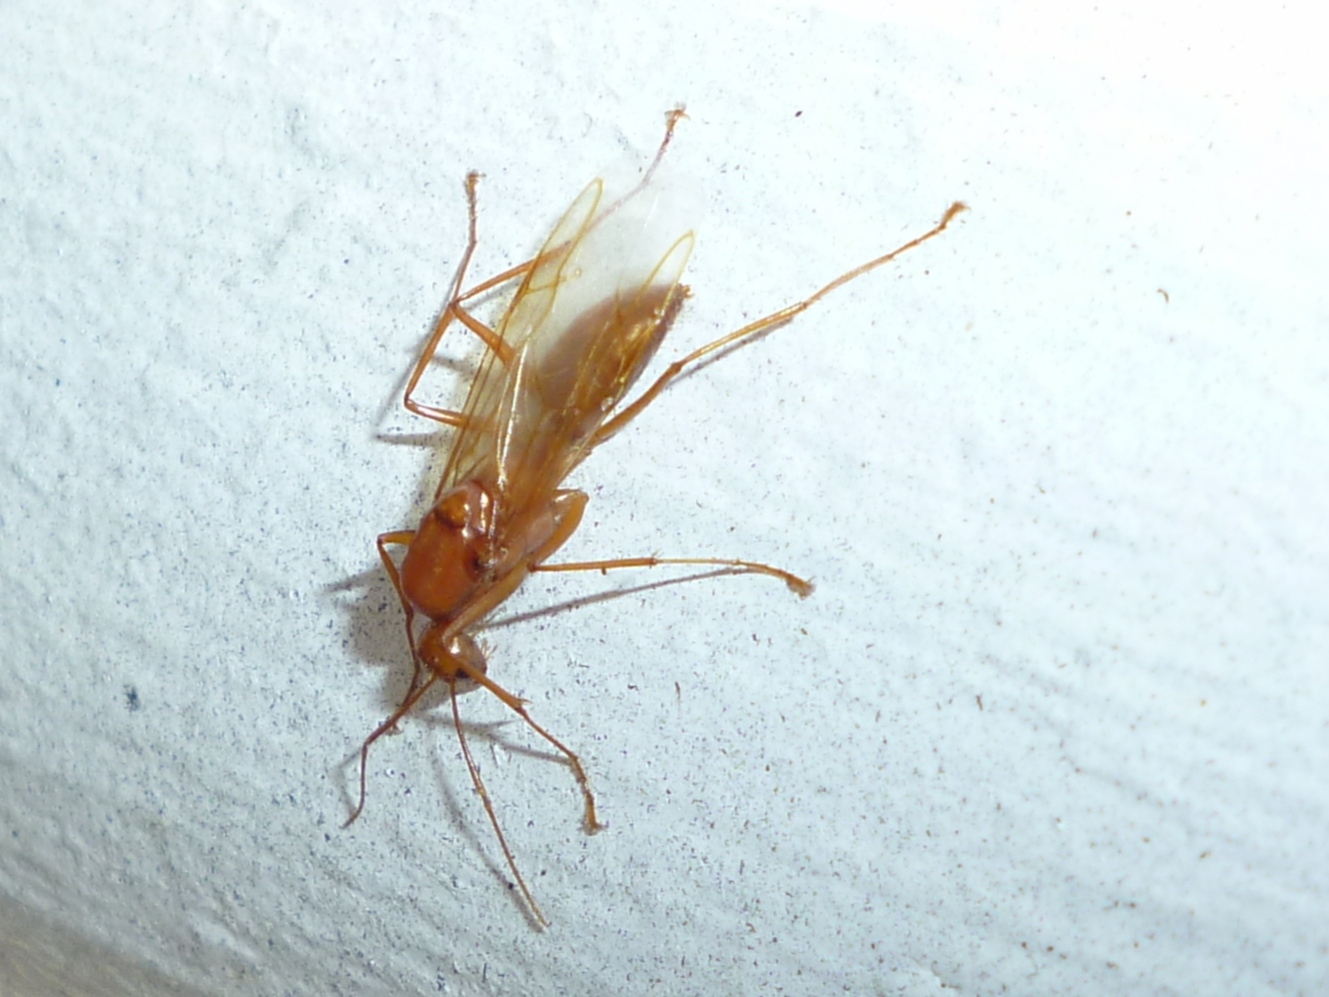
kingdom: Animalia
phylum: Arthropoda
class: Insecta
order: Hymenoptera
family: Formicidae
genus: Camponotus
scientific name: Camponotus castaneus
